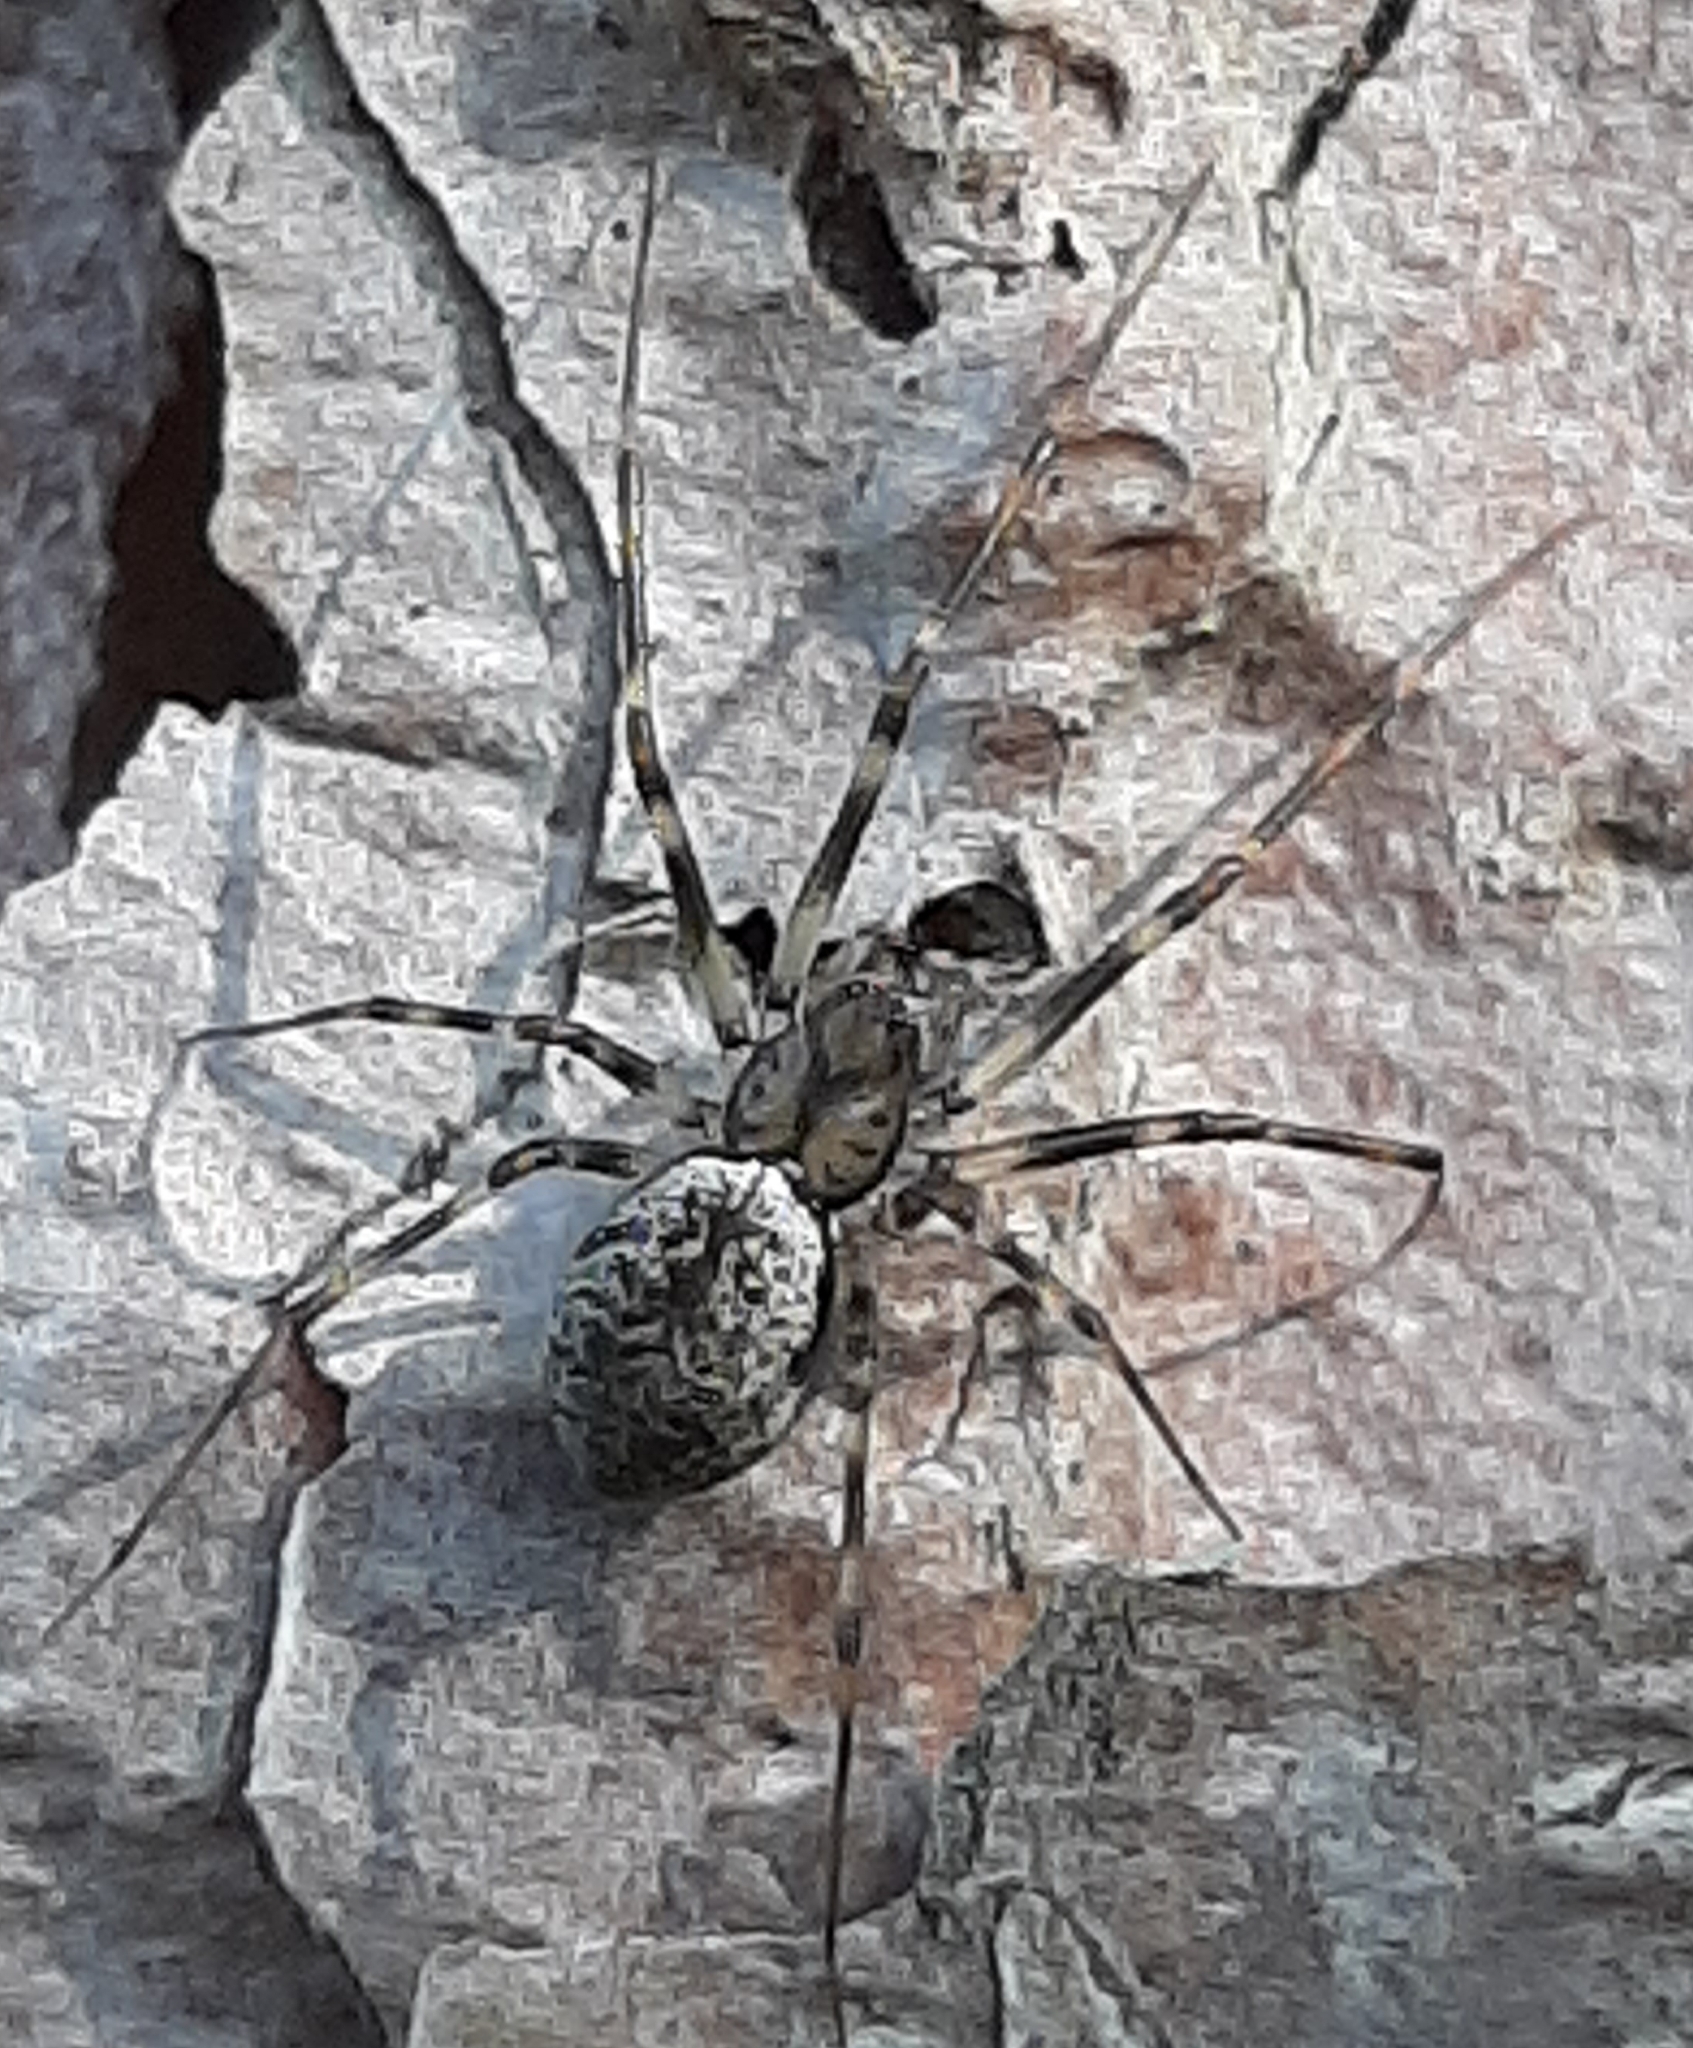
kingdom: Animalia
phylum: Arthropoda
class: Arachnida
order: Araneae
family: Linyphiidae
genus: Drapetisca
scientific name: Drapetisca alteranda
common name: Northern long-toothed sheetweaver
